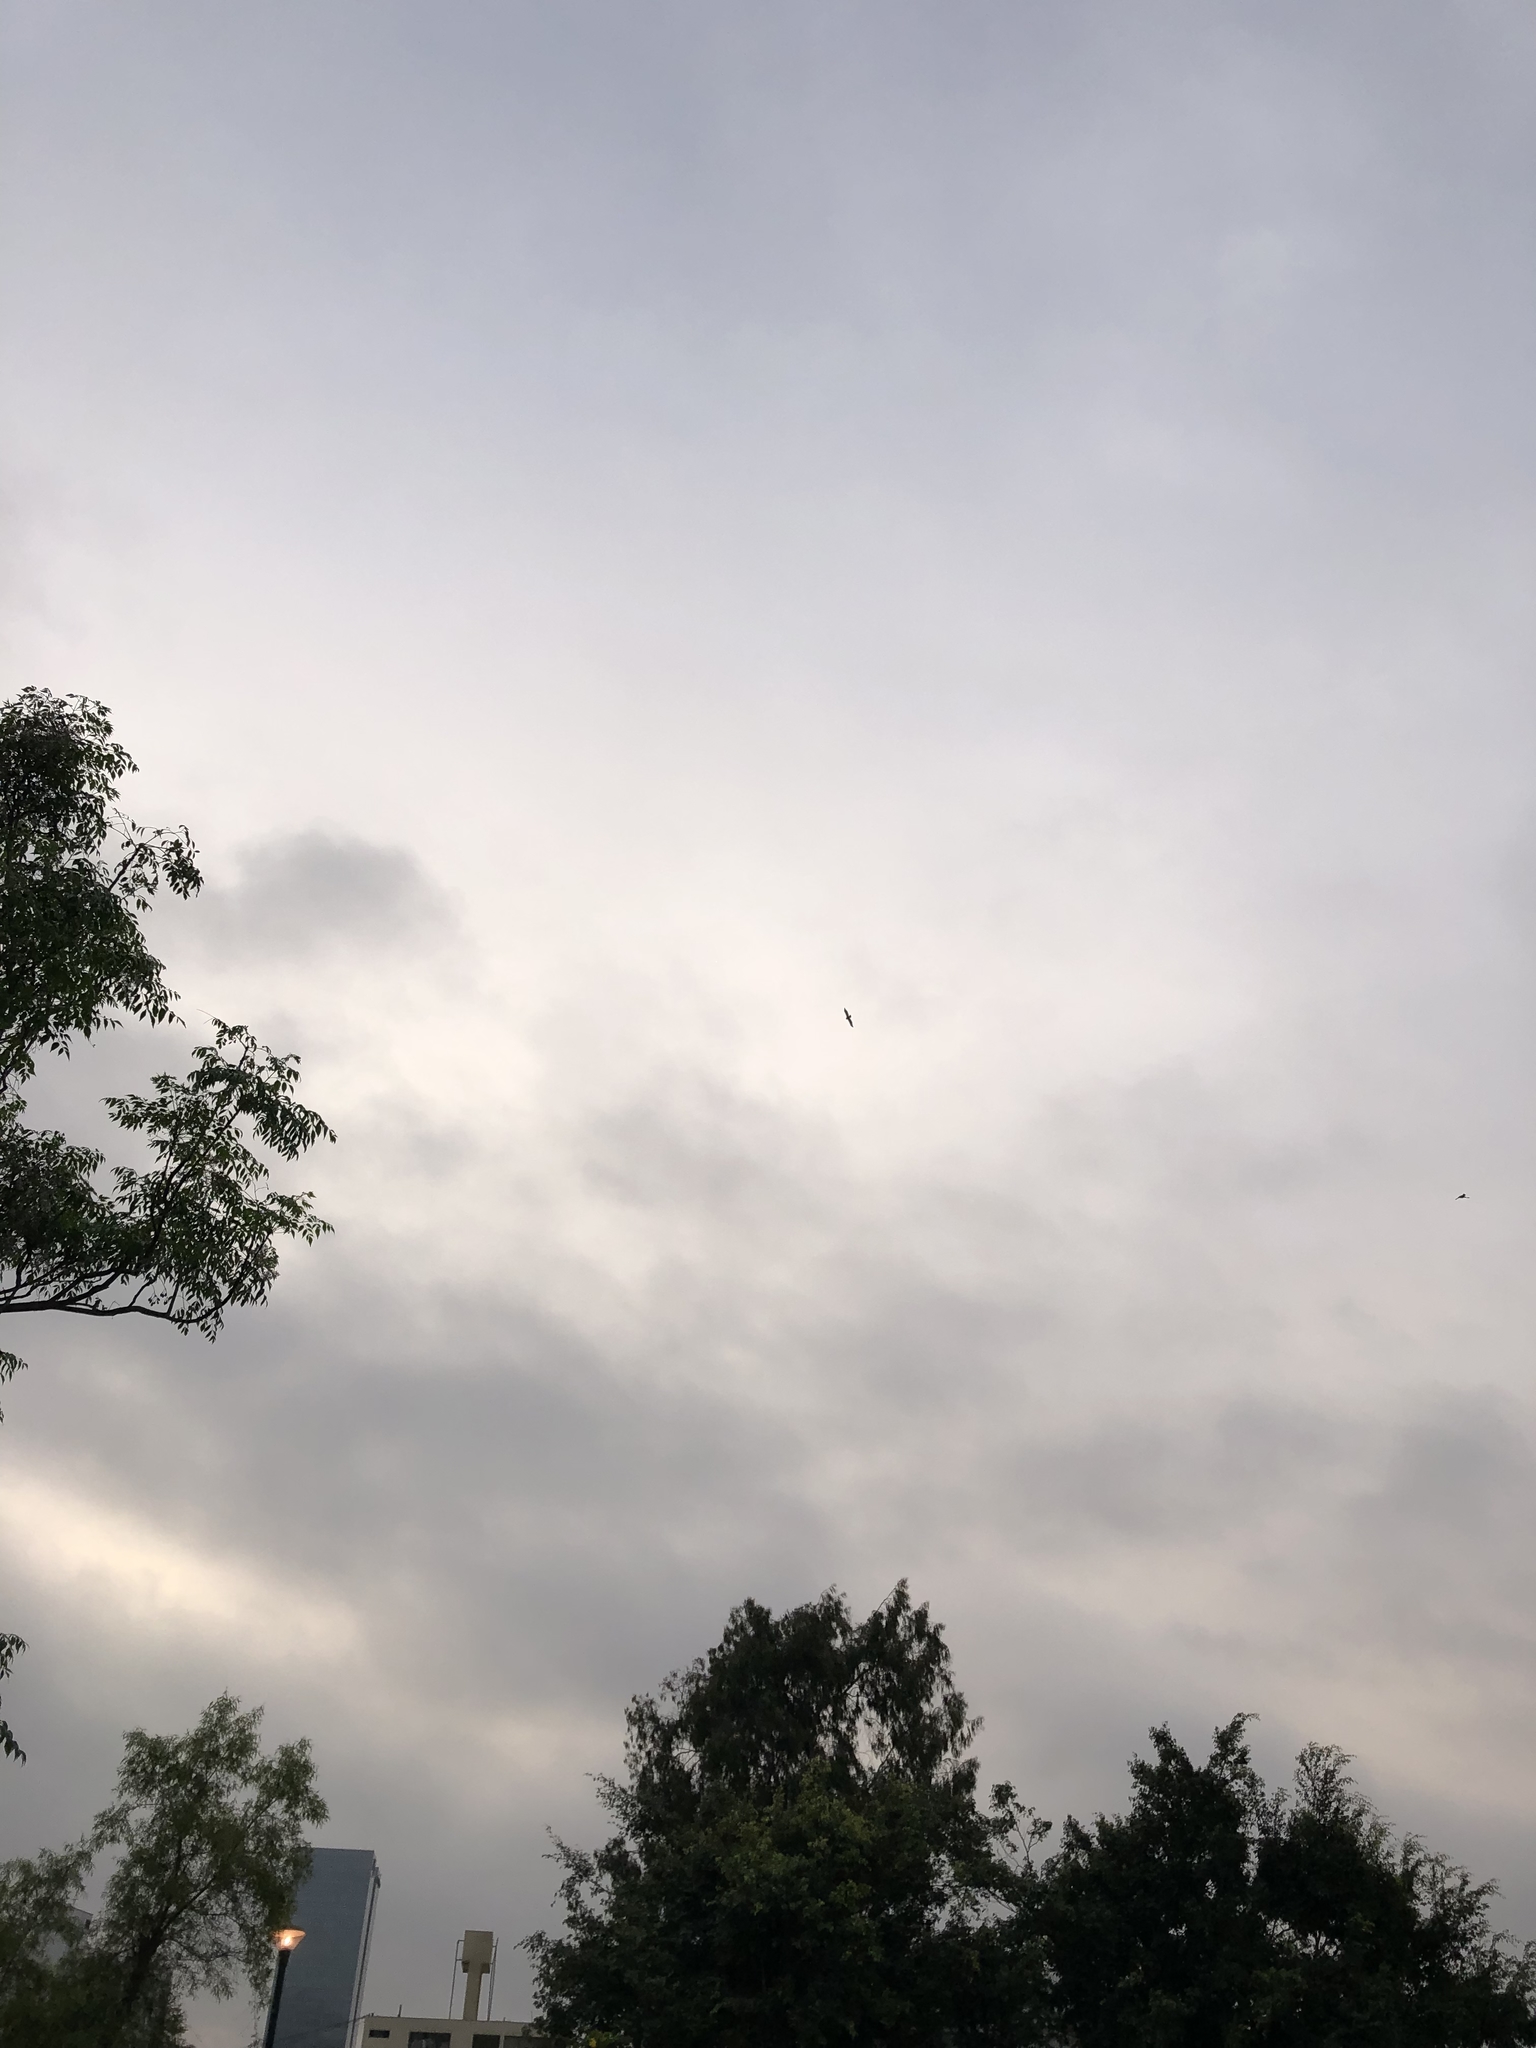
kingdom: Animalia
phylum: Chordata
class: Aves
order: Accipitriformes
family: Accipitridae
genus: Parabuteo
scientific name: Parabuteo unicinctus
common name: Harris's hawk
